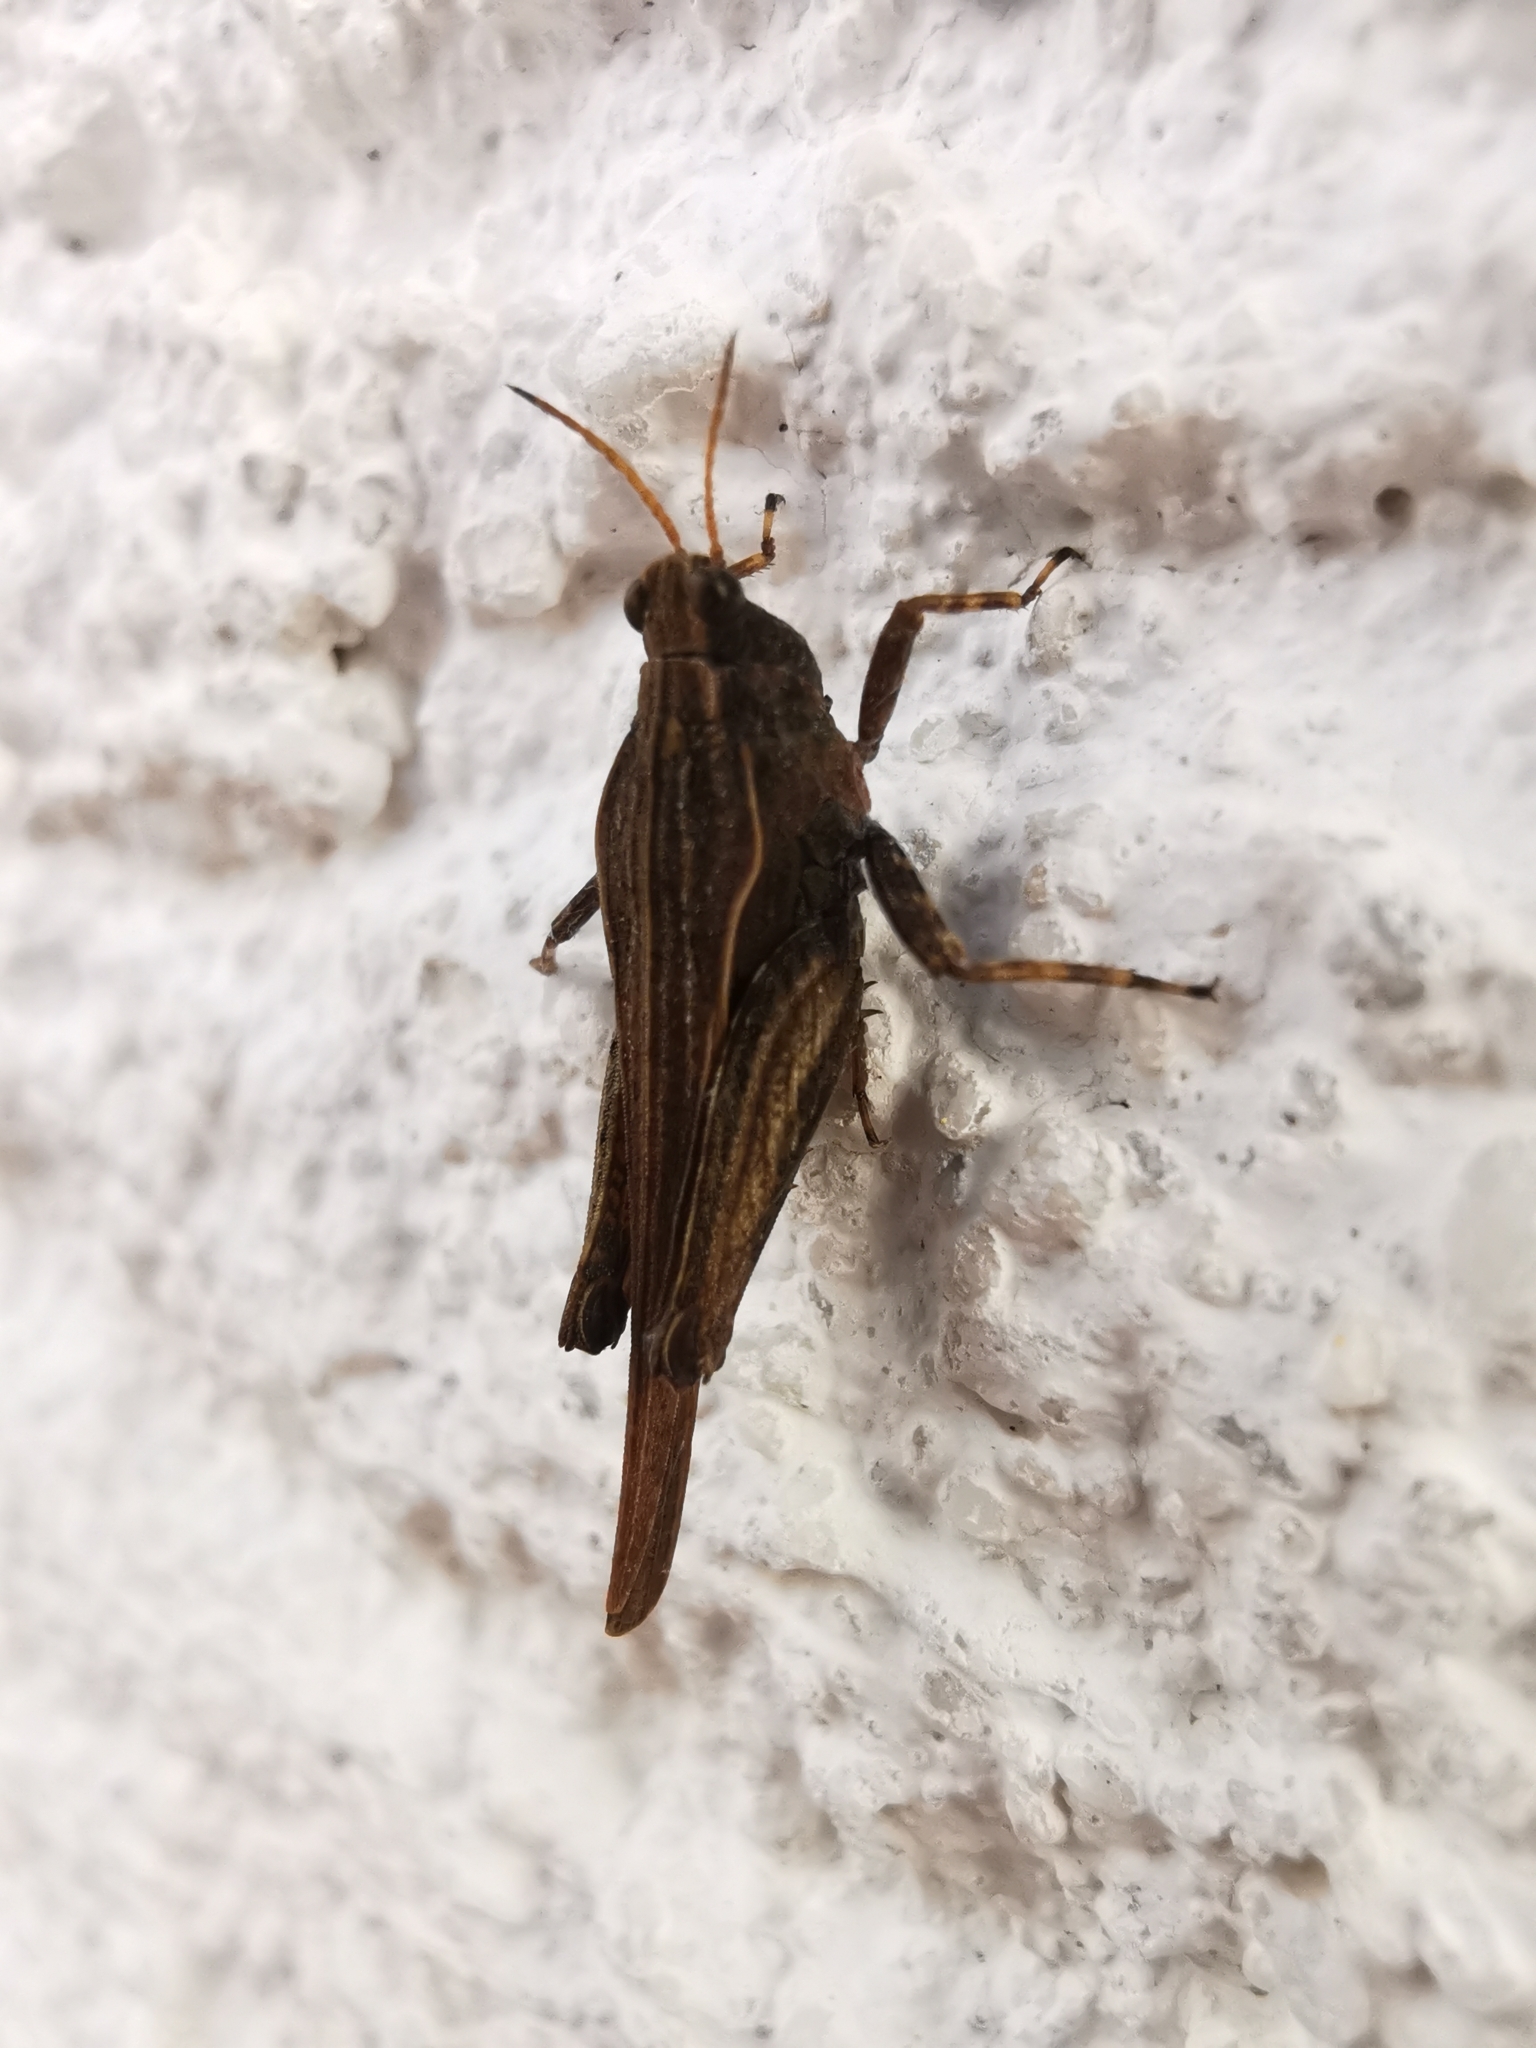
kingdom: Animalia
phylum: Arthropoda
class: Insecta
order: Orthoptera
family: Tetrigidae
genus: Tetrix
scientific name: Tetrix subulata
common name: Slender ground-hopper
